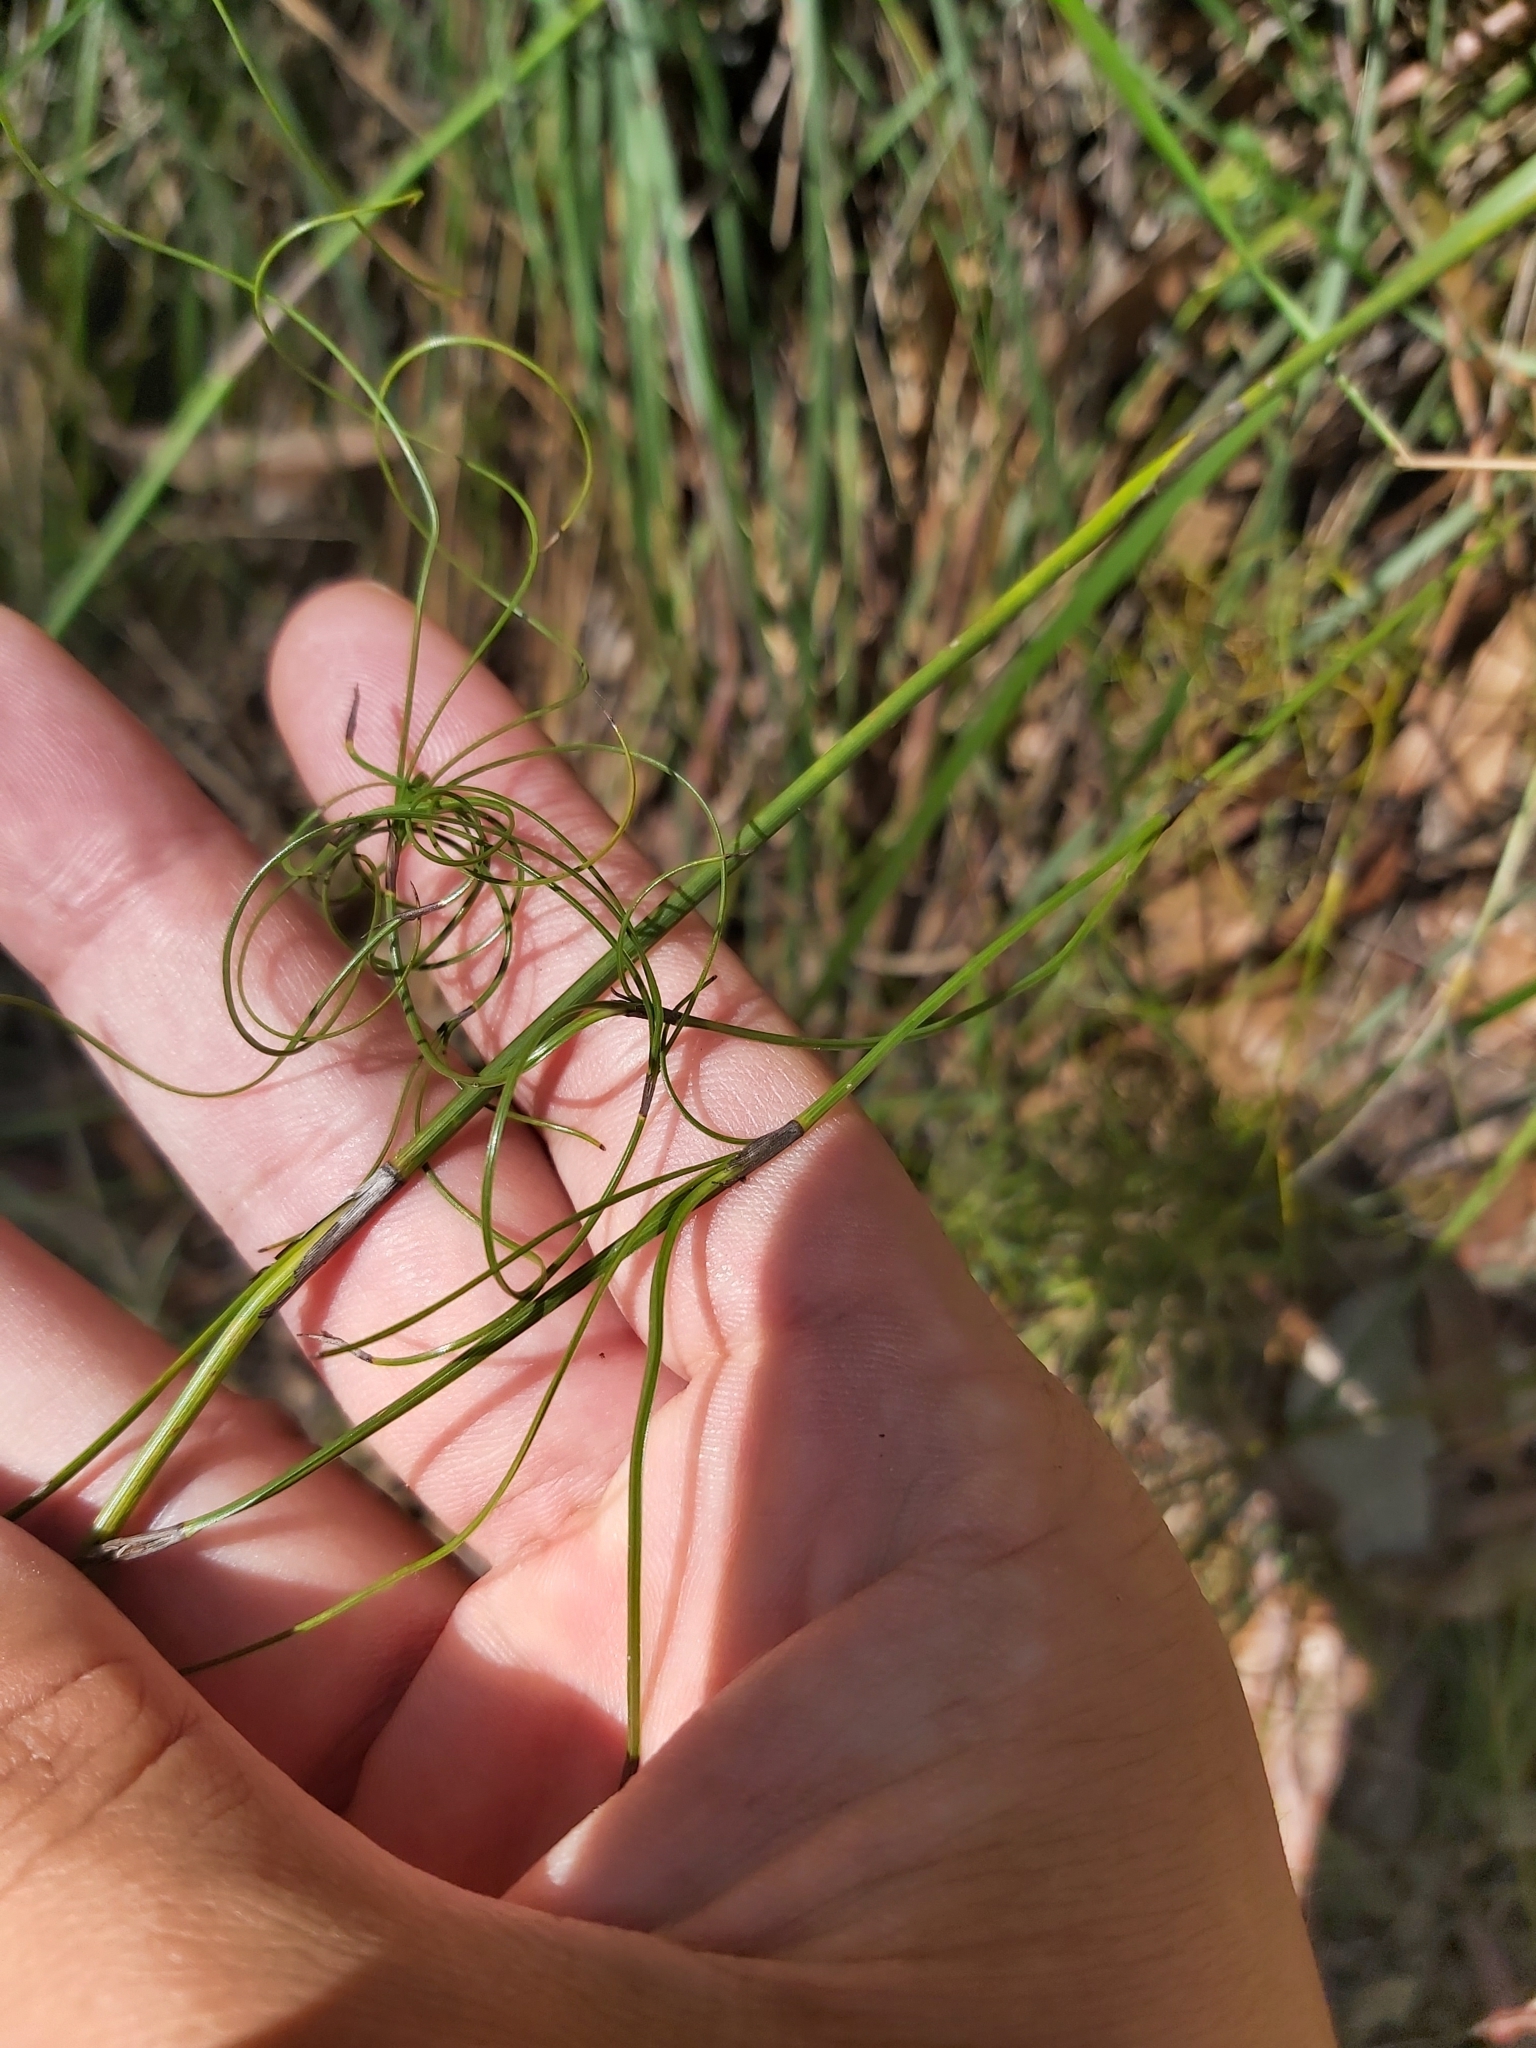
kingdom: Plantae
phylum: Tracheophyta
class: Liliopsida
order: Poales
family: Cyperaceae
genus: Caustis
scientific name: Caustis flexuosa
